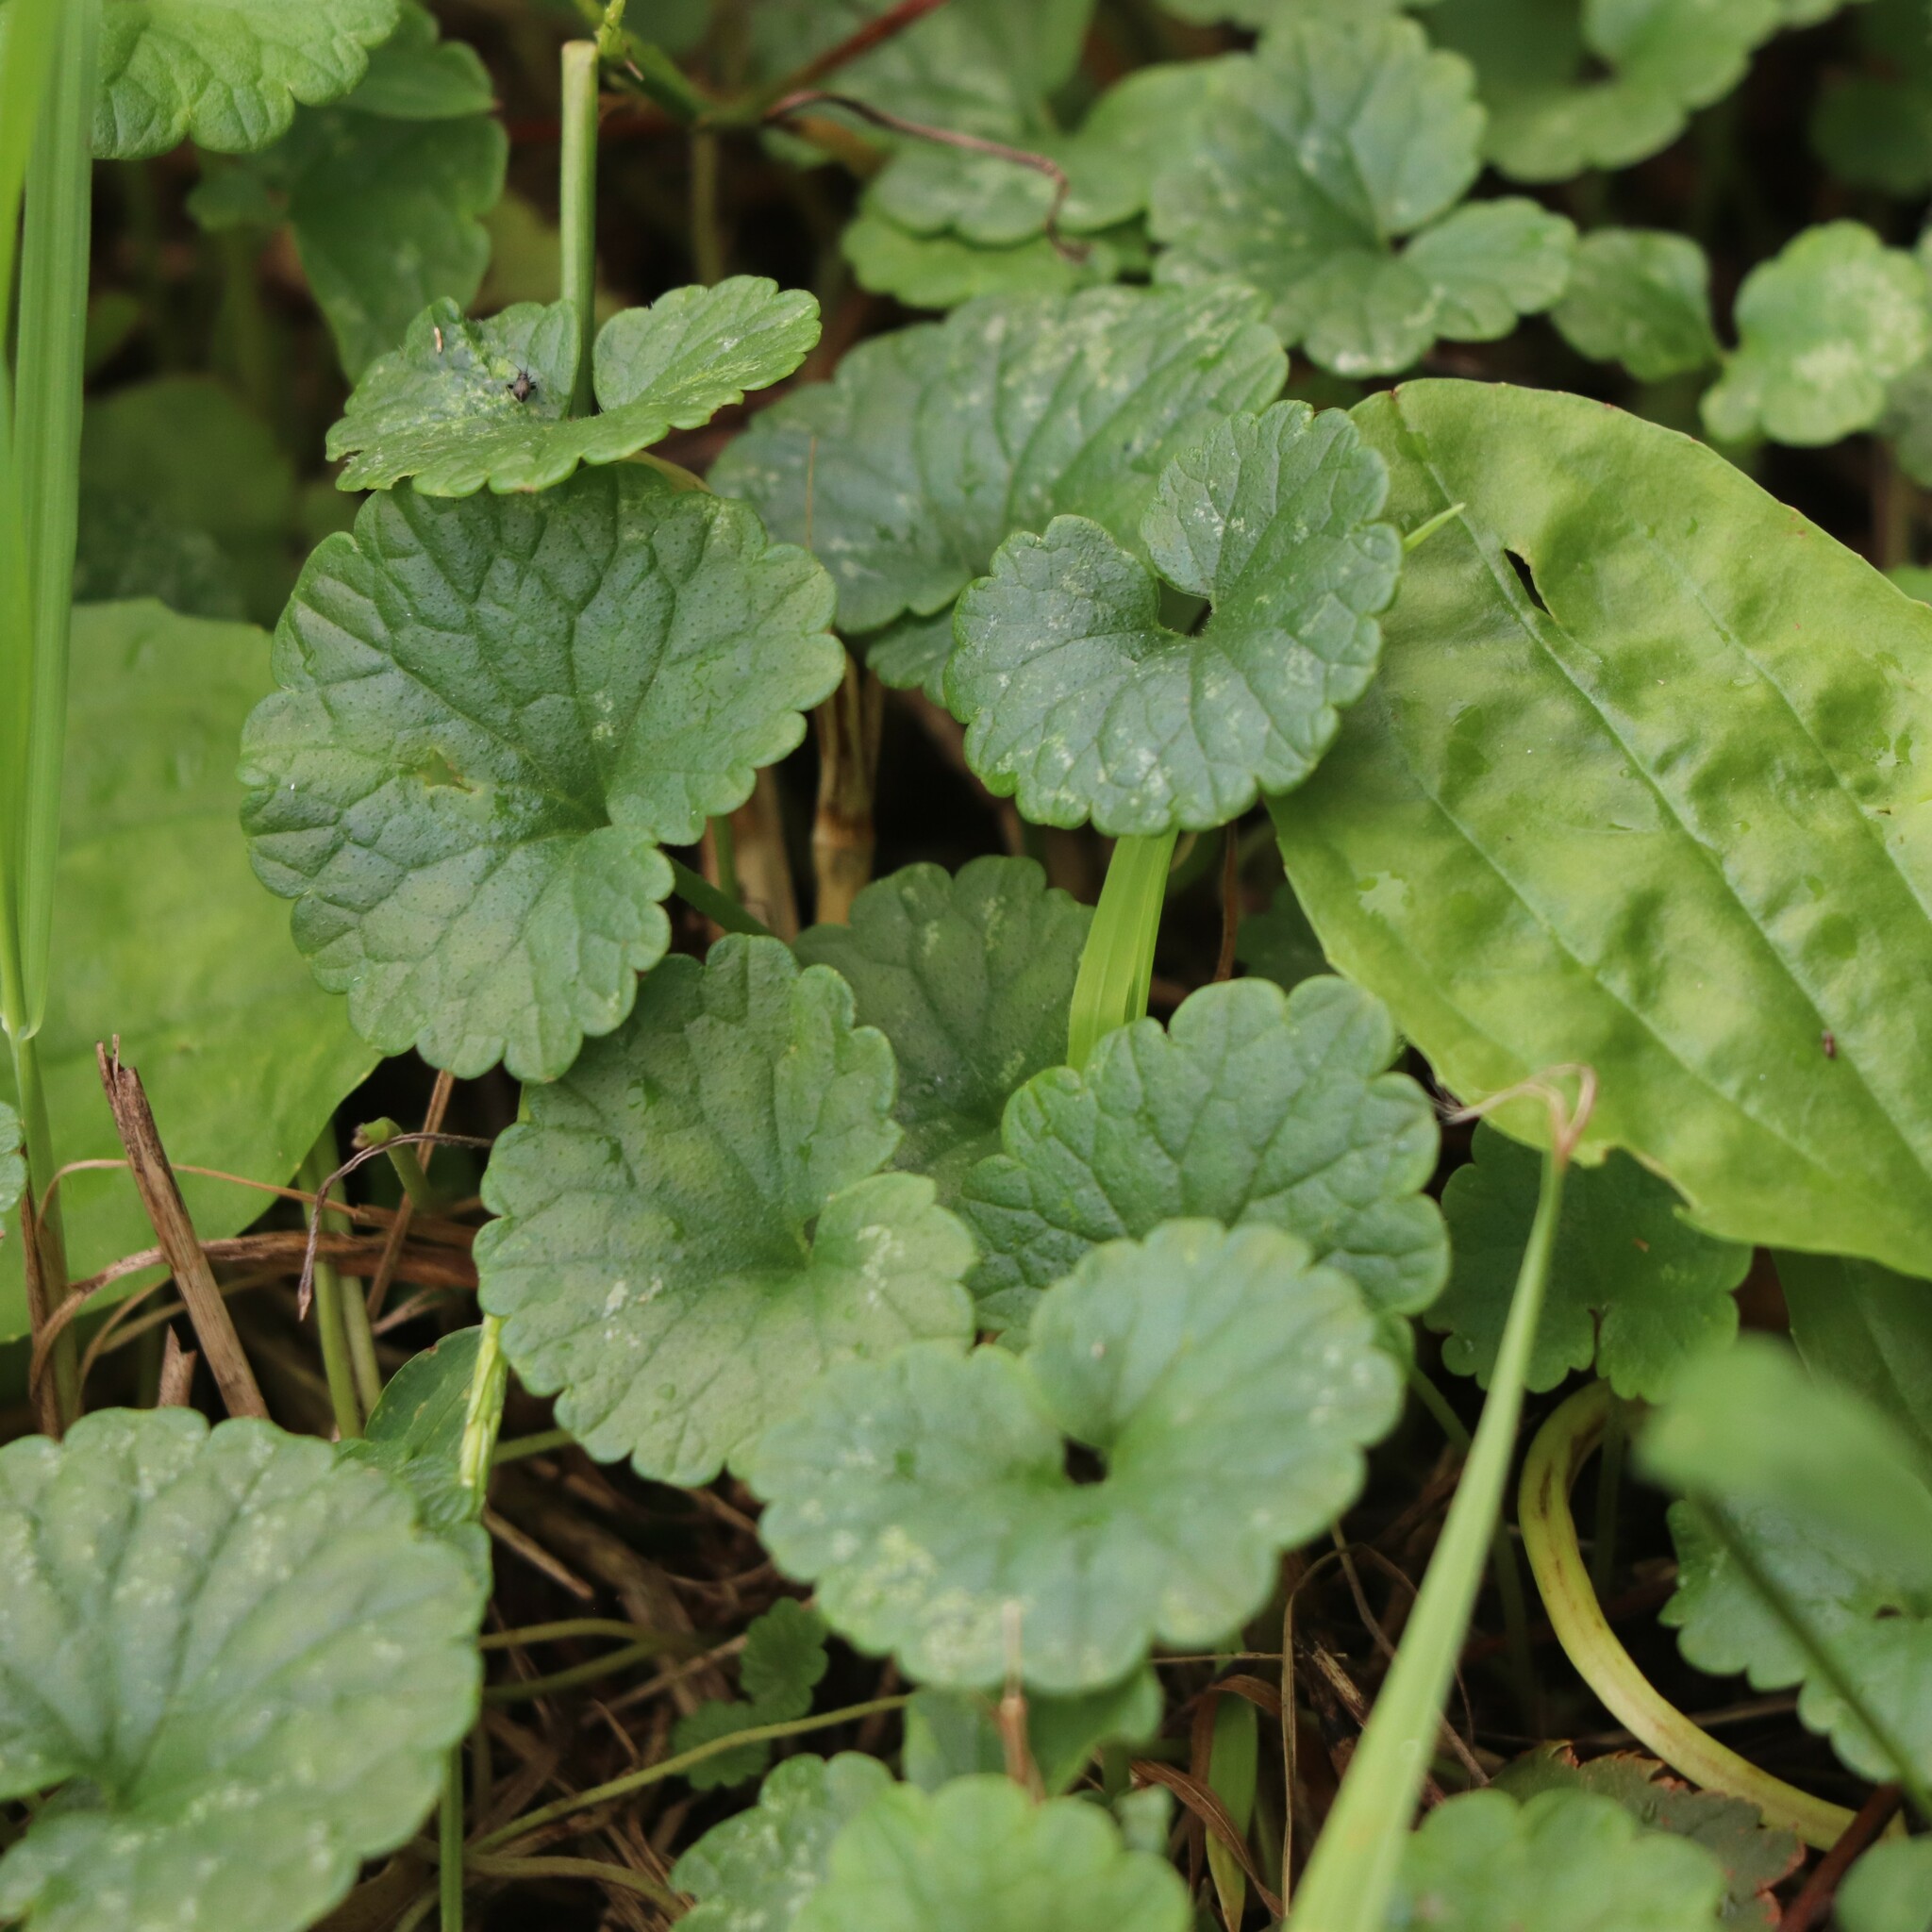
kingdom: Plantae
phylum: Tracheophyta
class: Magnoliopsida
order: Lamiales
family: Lamiaceae
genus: Glechoma
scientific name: Glechoma hederacea
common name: Ground ivy
